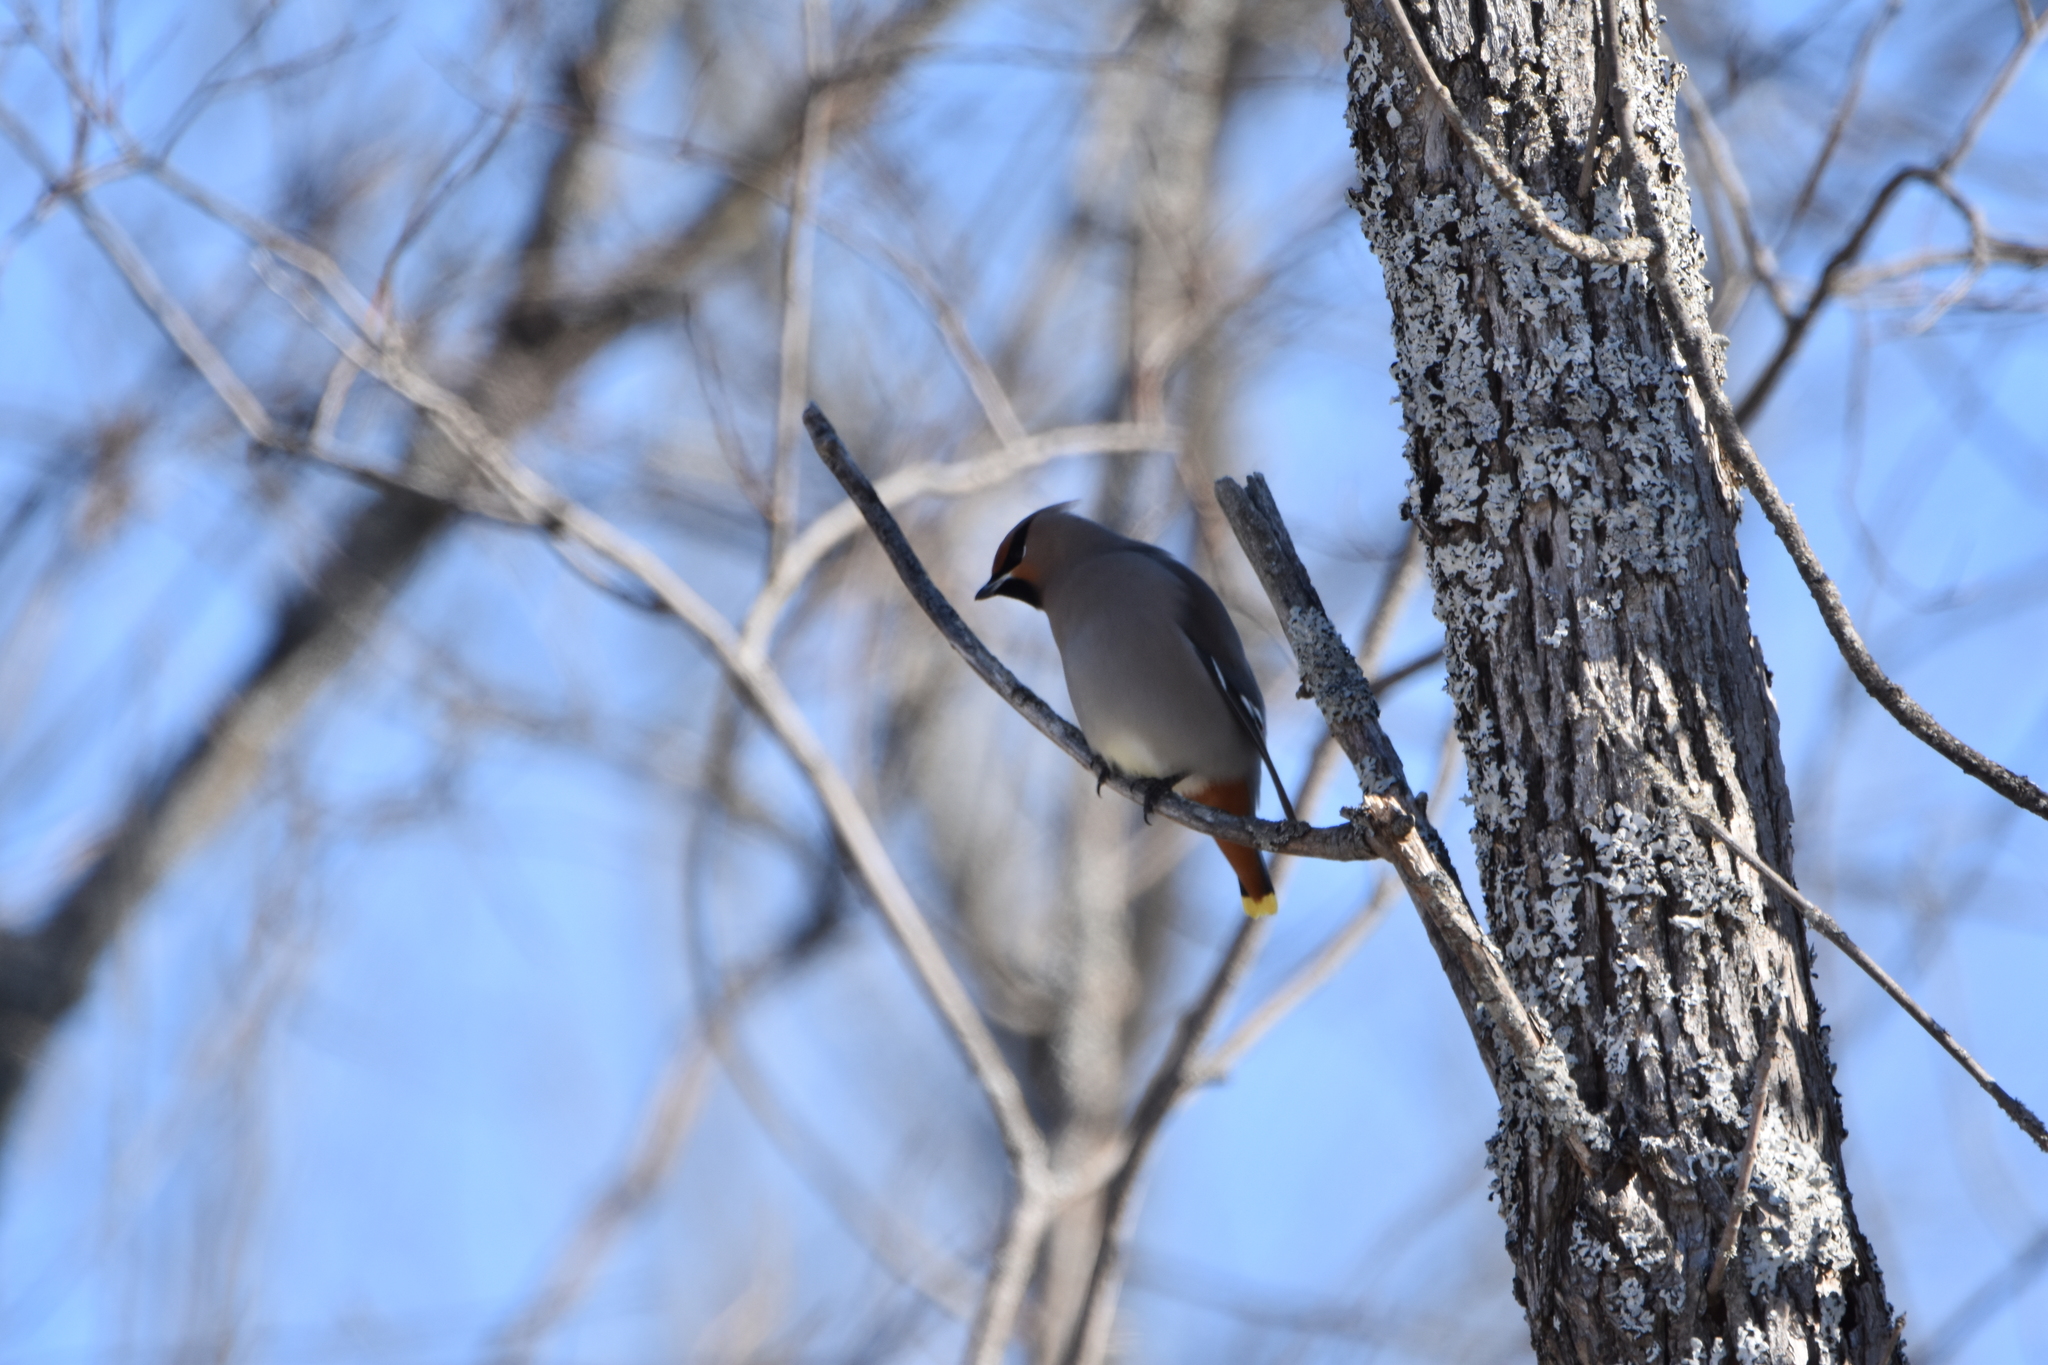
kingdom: Animalia
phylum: Chordata
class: Aves
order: Passeriformes
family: Bombycillidae
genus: Bombycilla
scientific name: Bombycilla garrulus
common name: Bohemian waxwing
